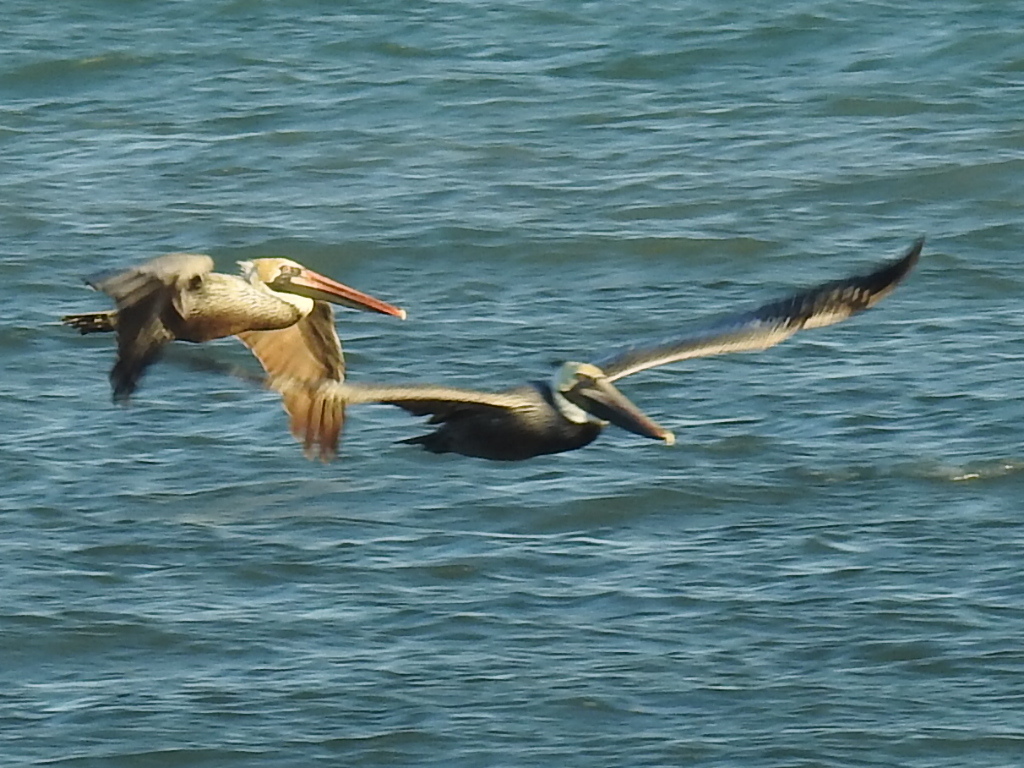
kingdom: Animalia
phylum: Chordata
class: Aves
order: Pelecaniformes
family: Pelecanidae
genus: Pelecanus
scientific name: Pelecanus occidentalis
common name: Brown pelican
